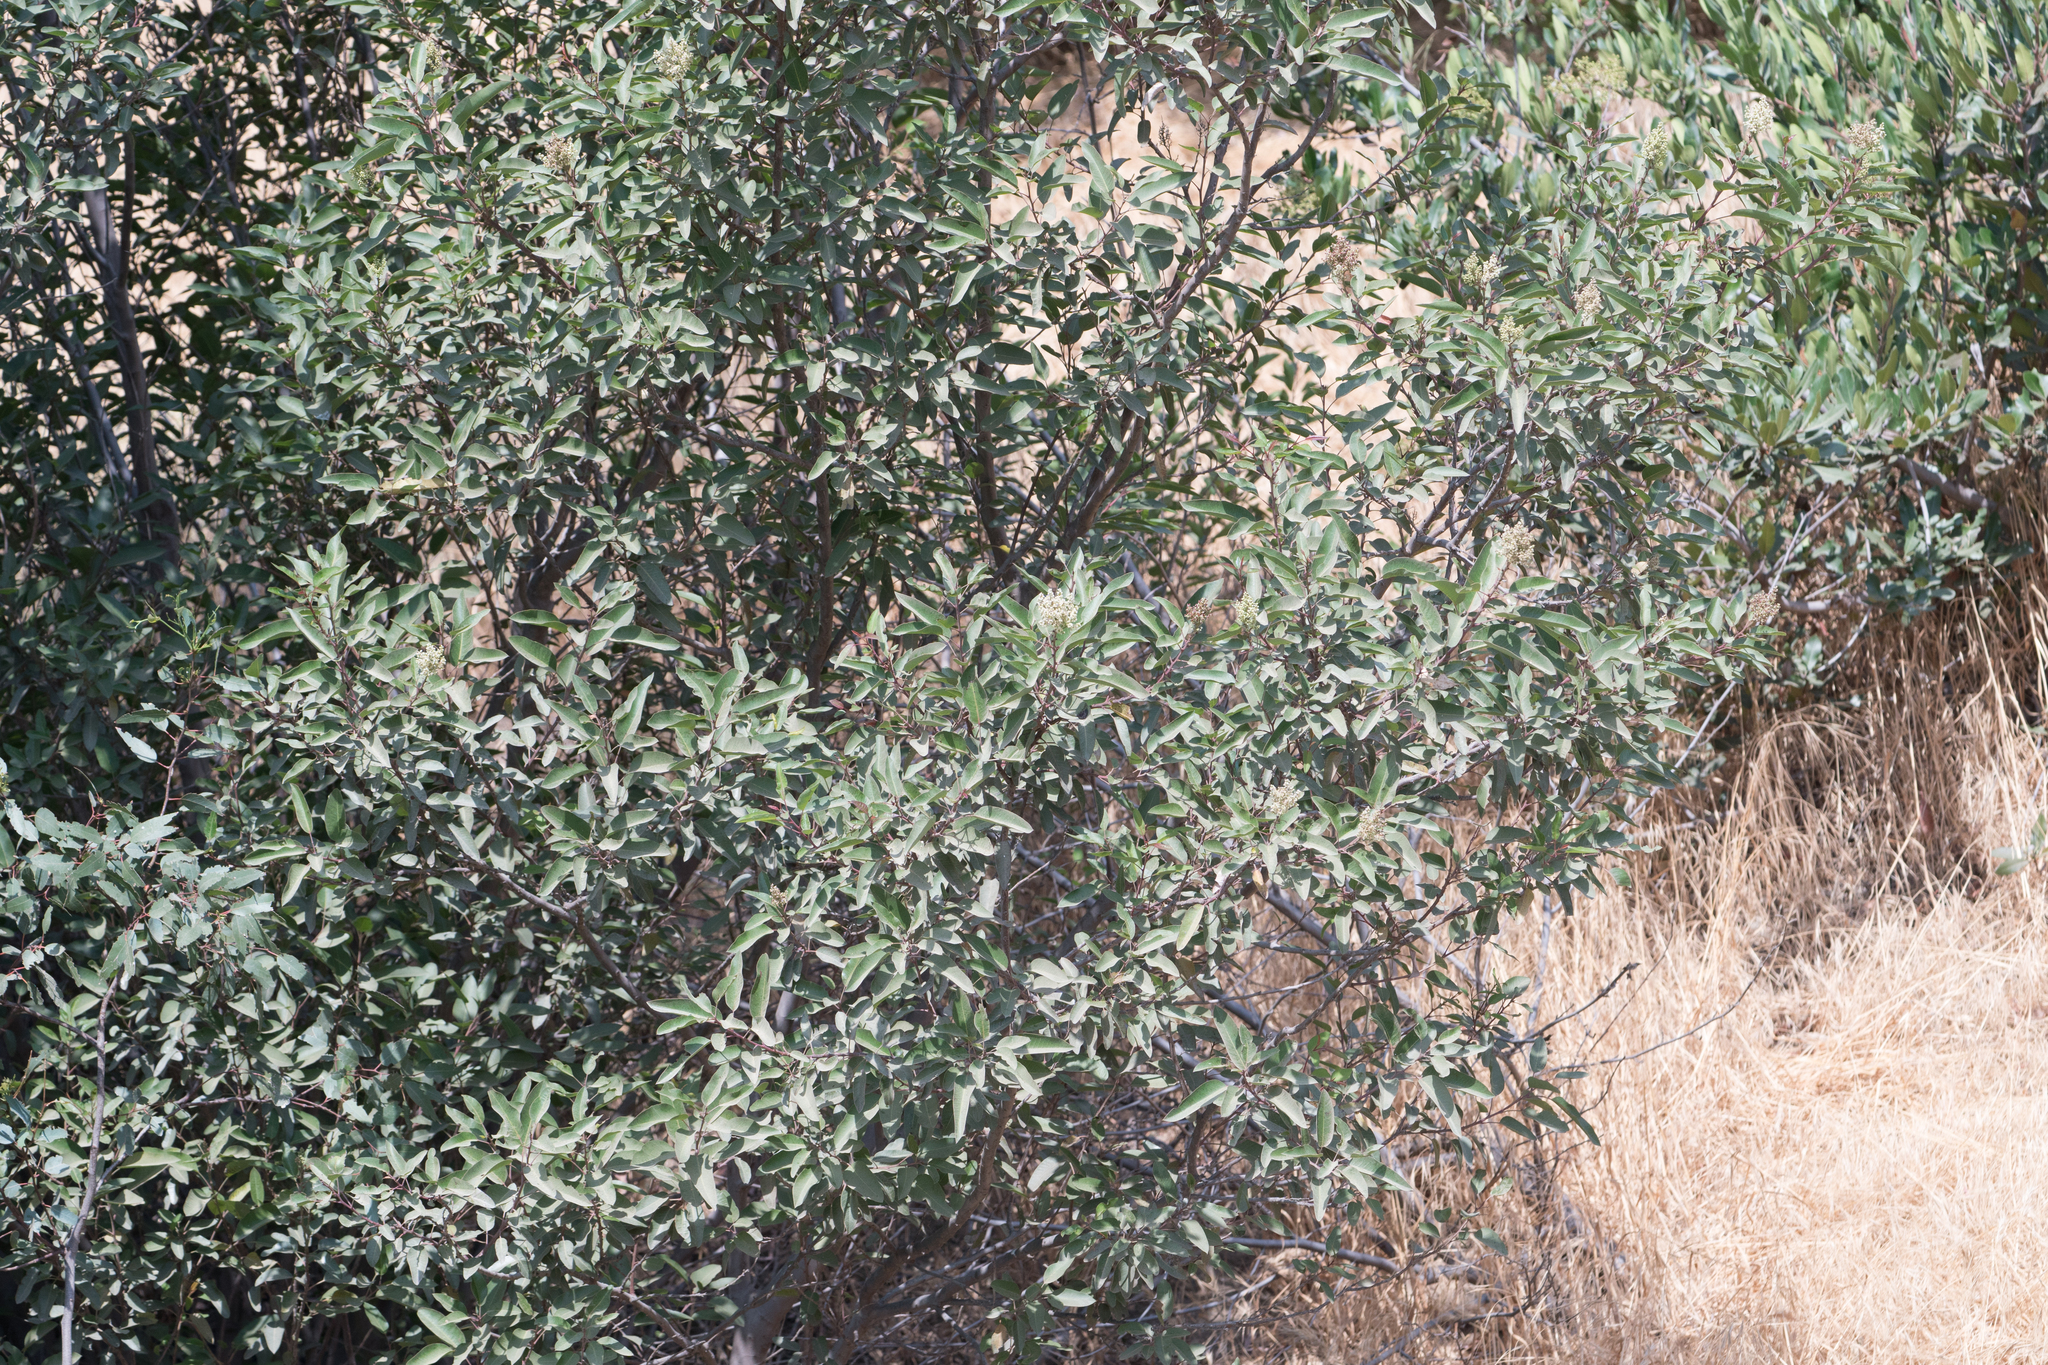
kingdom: Plantae
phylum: Tracheophyta
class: Magnoliopsida
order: Sapindales
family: Anacardiaceae
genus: Malosma
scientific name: Malosma laurina
